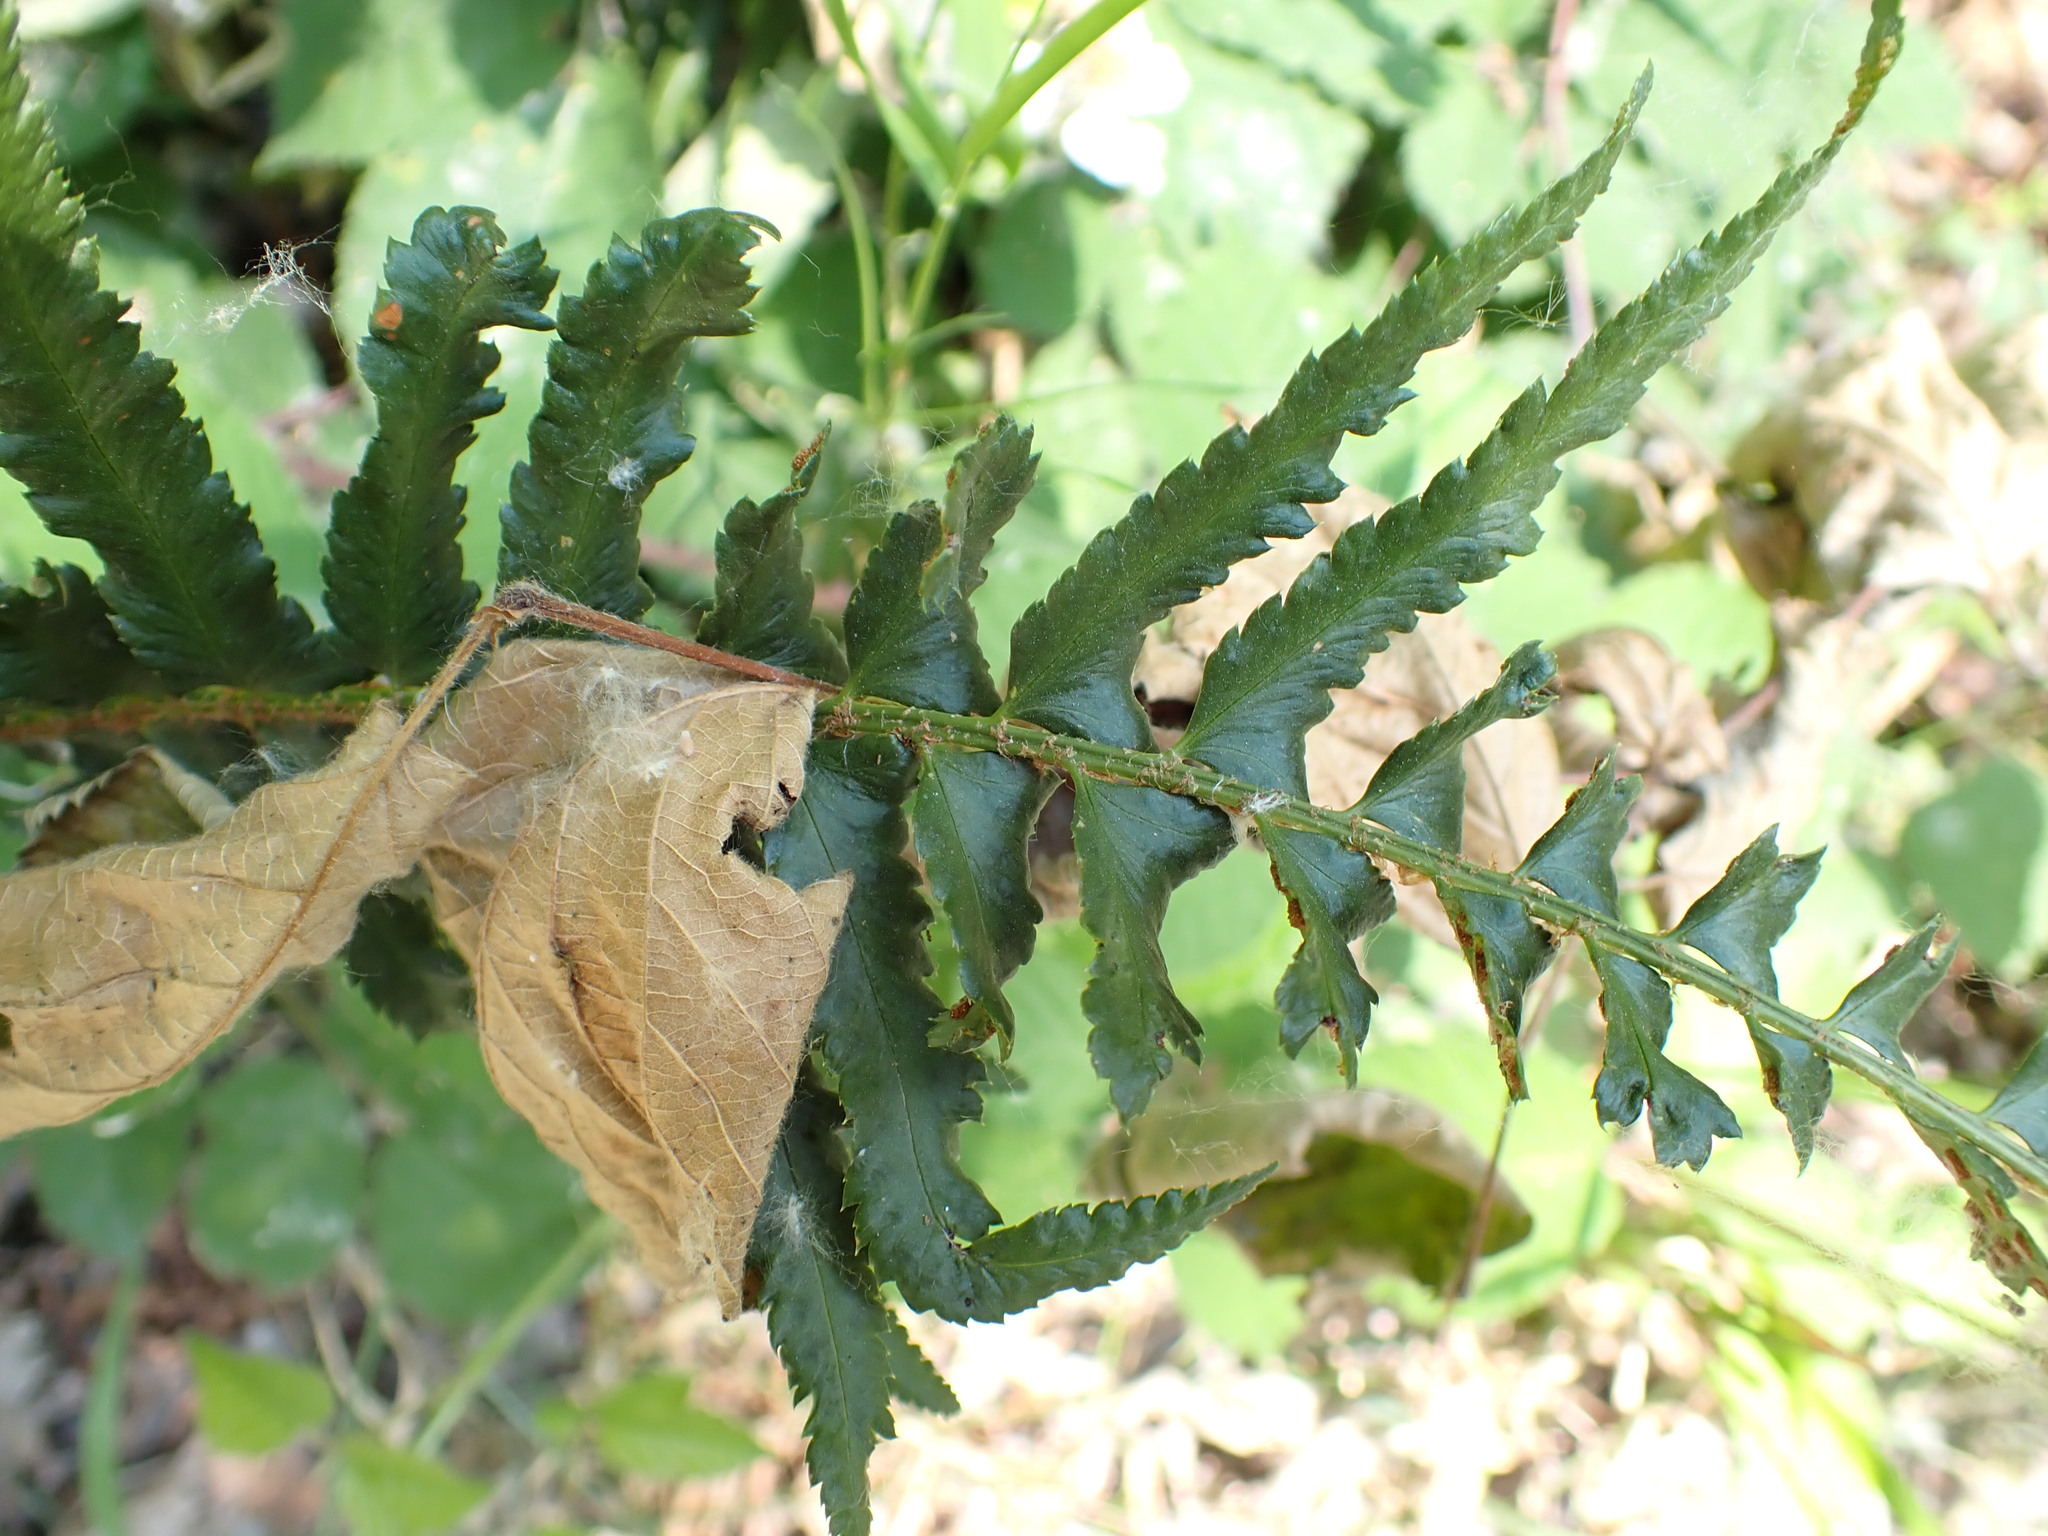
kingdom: Plantae
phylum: Tracheophyta
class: Polypodiopsida
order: Polypodiales
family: Dryopteridaceae
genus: Polystichum
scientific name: Polystichum munitum
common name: Western sword-fern
